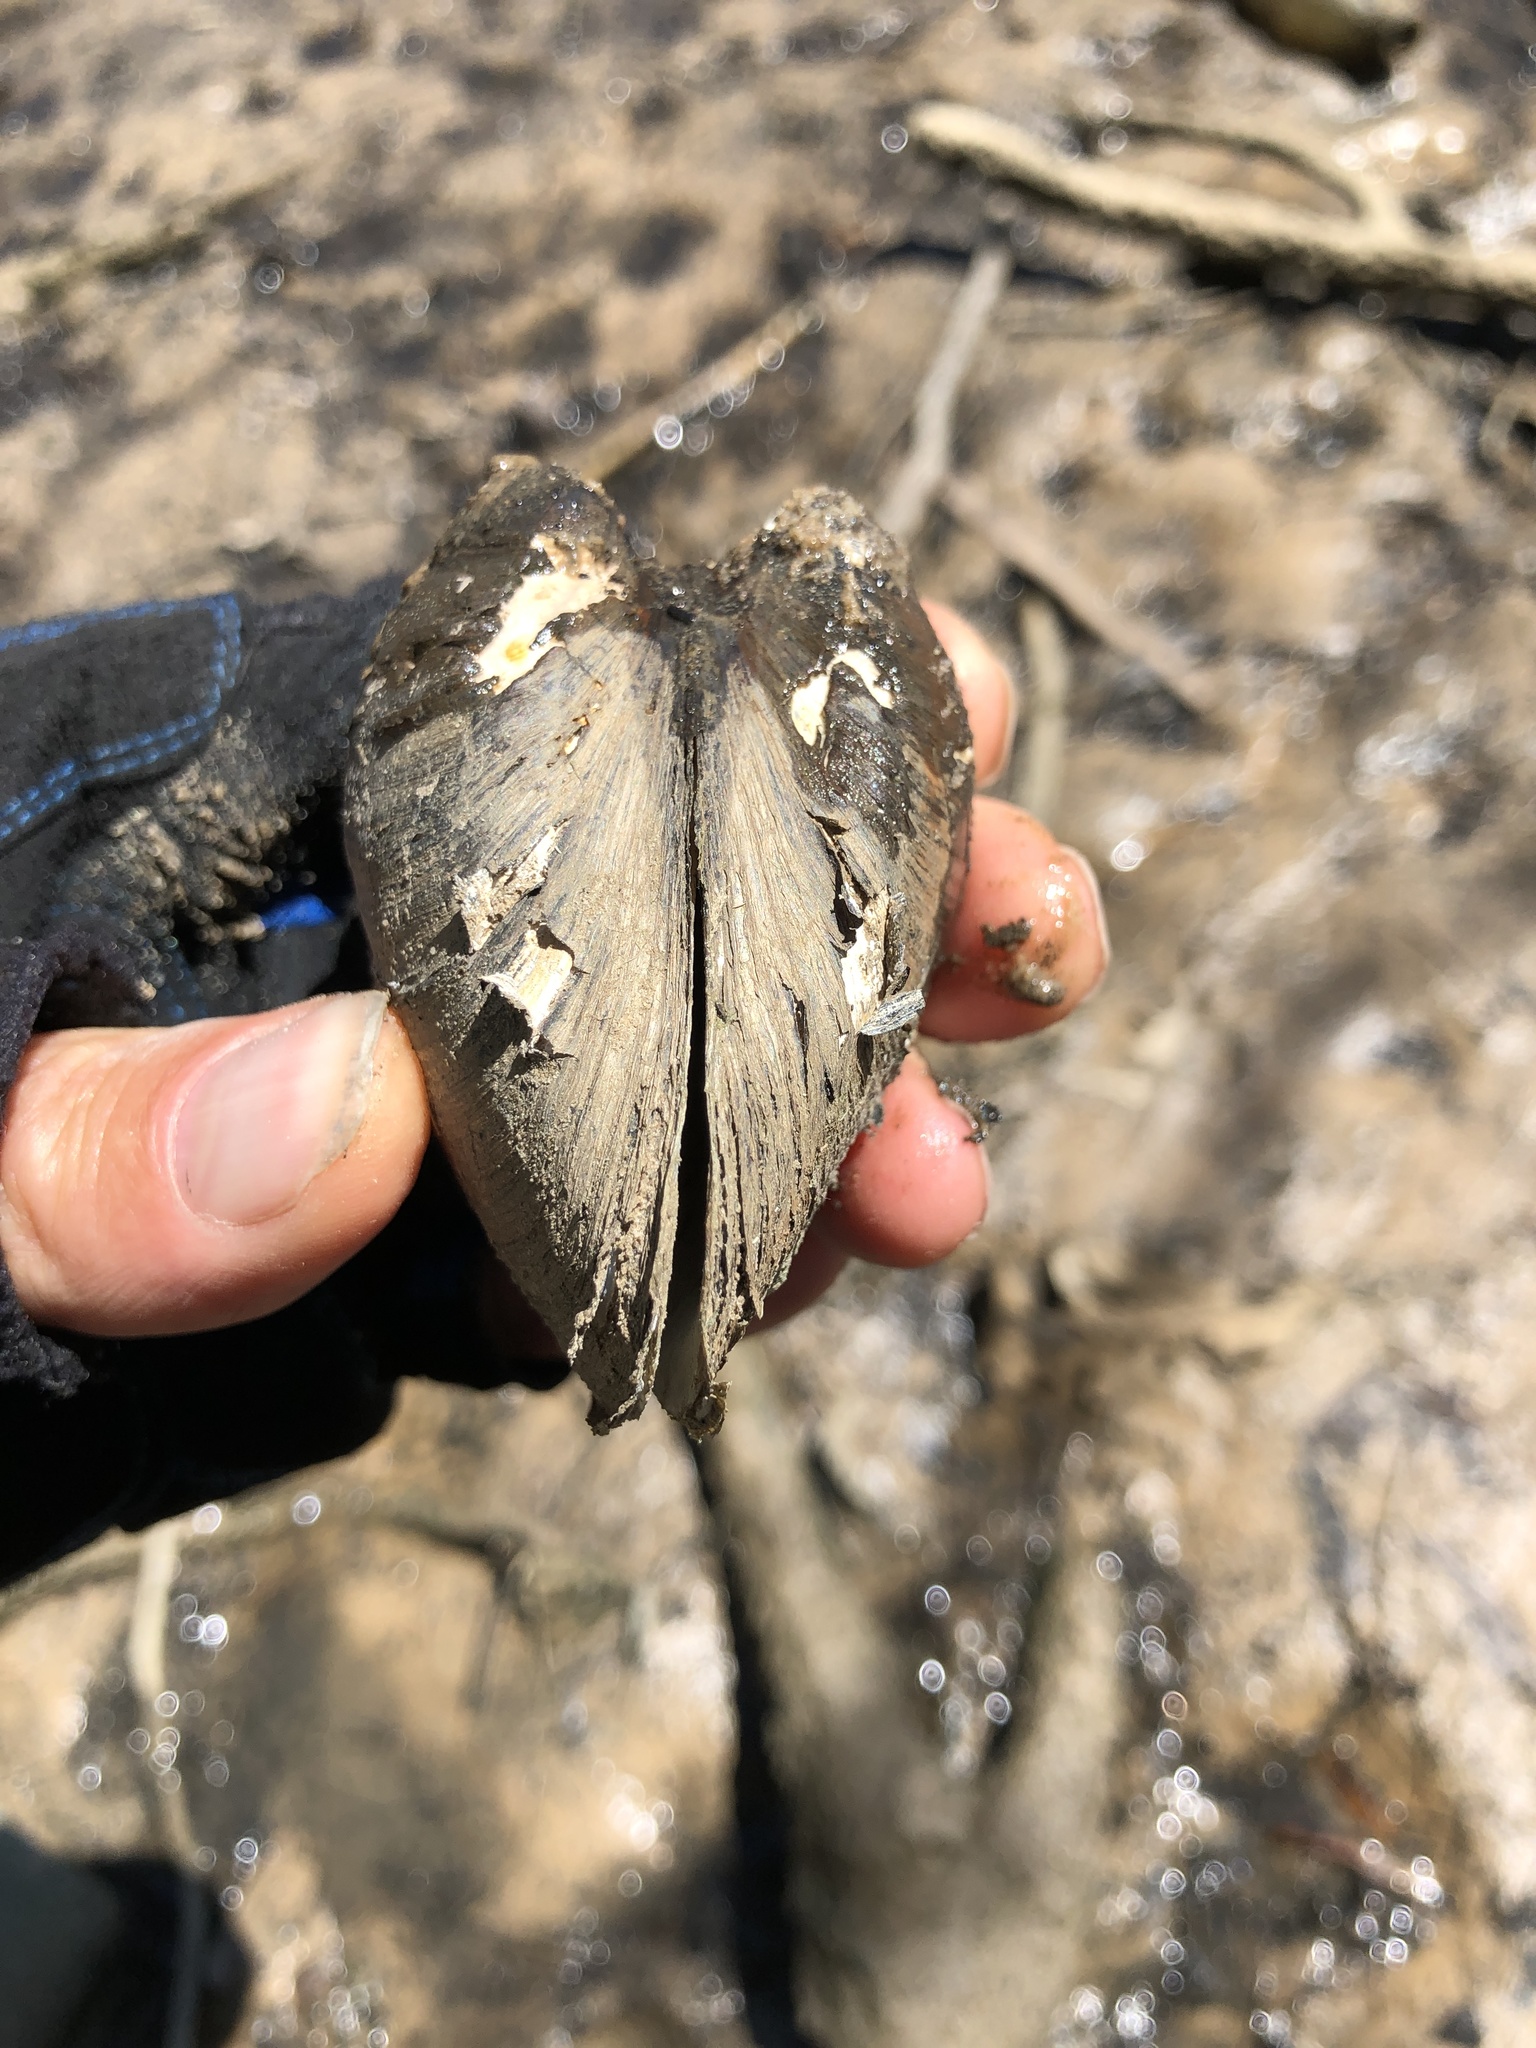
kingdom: Animalia
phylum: Mollusca
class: Bivalvia
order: Venerida
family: Mactridae
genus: Rangia
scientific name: Rangia cuneata
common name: Atlantic rangia
